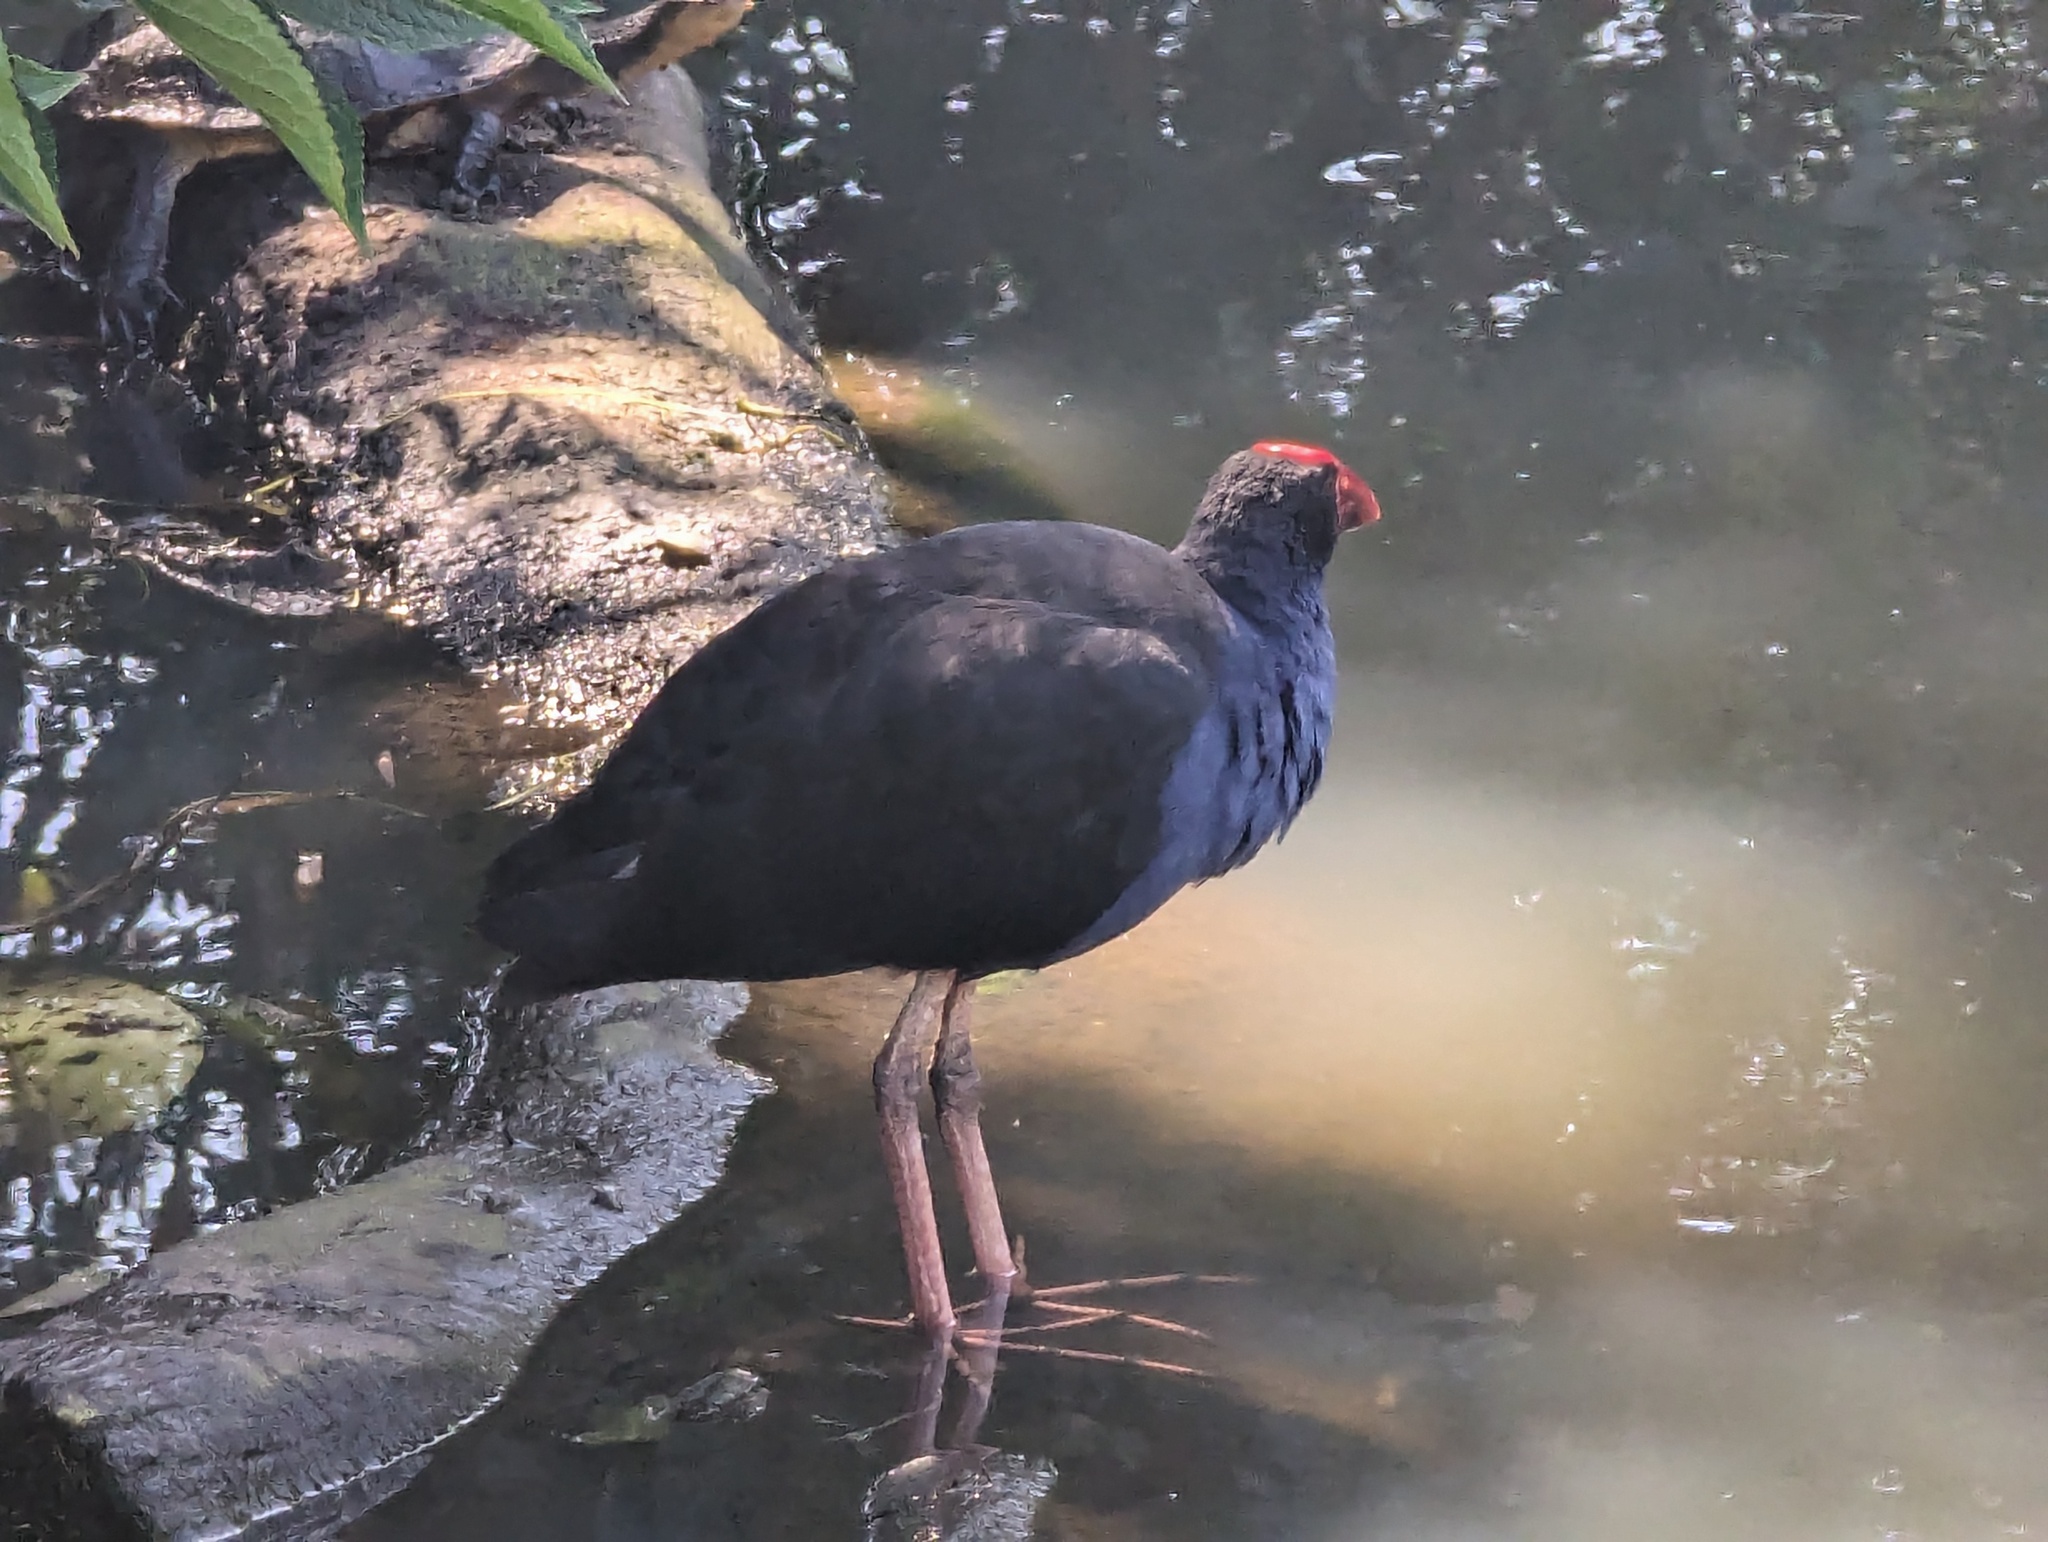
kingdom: Animalia
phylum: Chordata
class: Aves
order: Gruiformes
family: Rallidae
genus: Porphyrio
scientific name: Porphyrio melanotus
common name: Australasian swamphen
